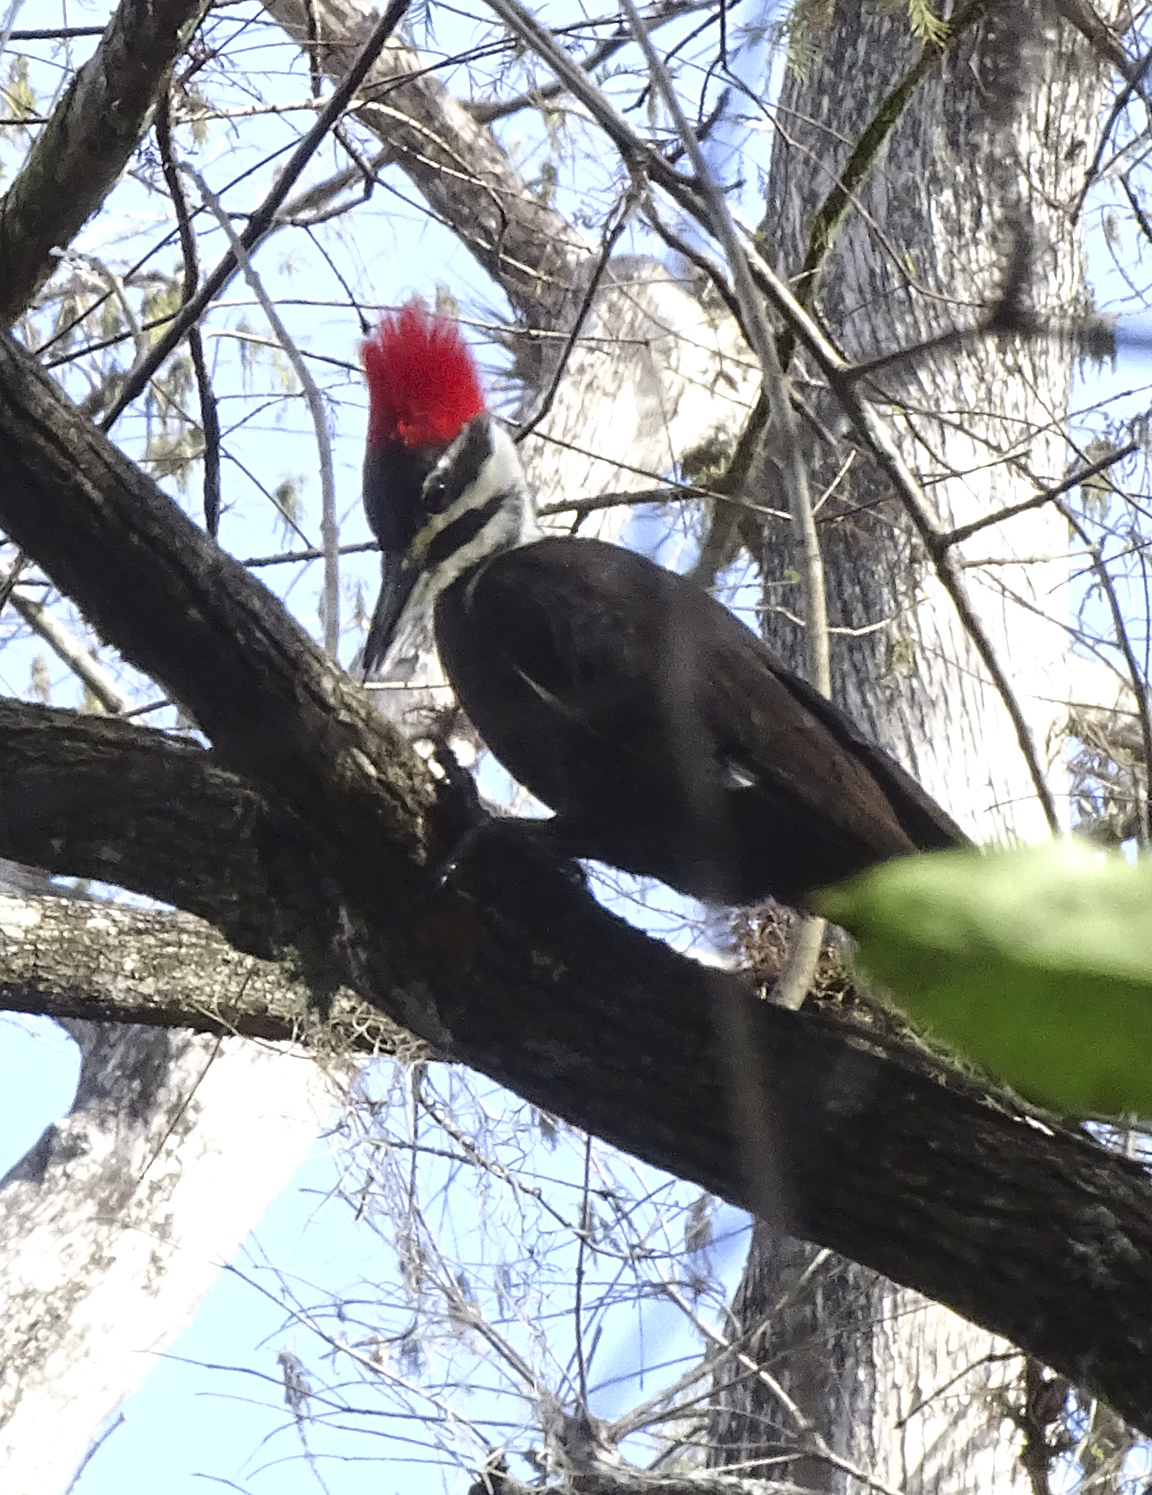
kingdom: Animalia
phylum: Chordata
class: Aves
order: Piciformes
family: Picidae
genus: Dryocopus
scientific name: Dryocopus pileatus
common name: Pileated woodpecker
